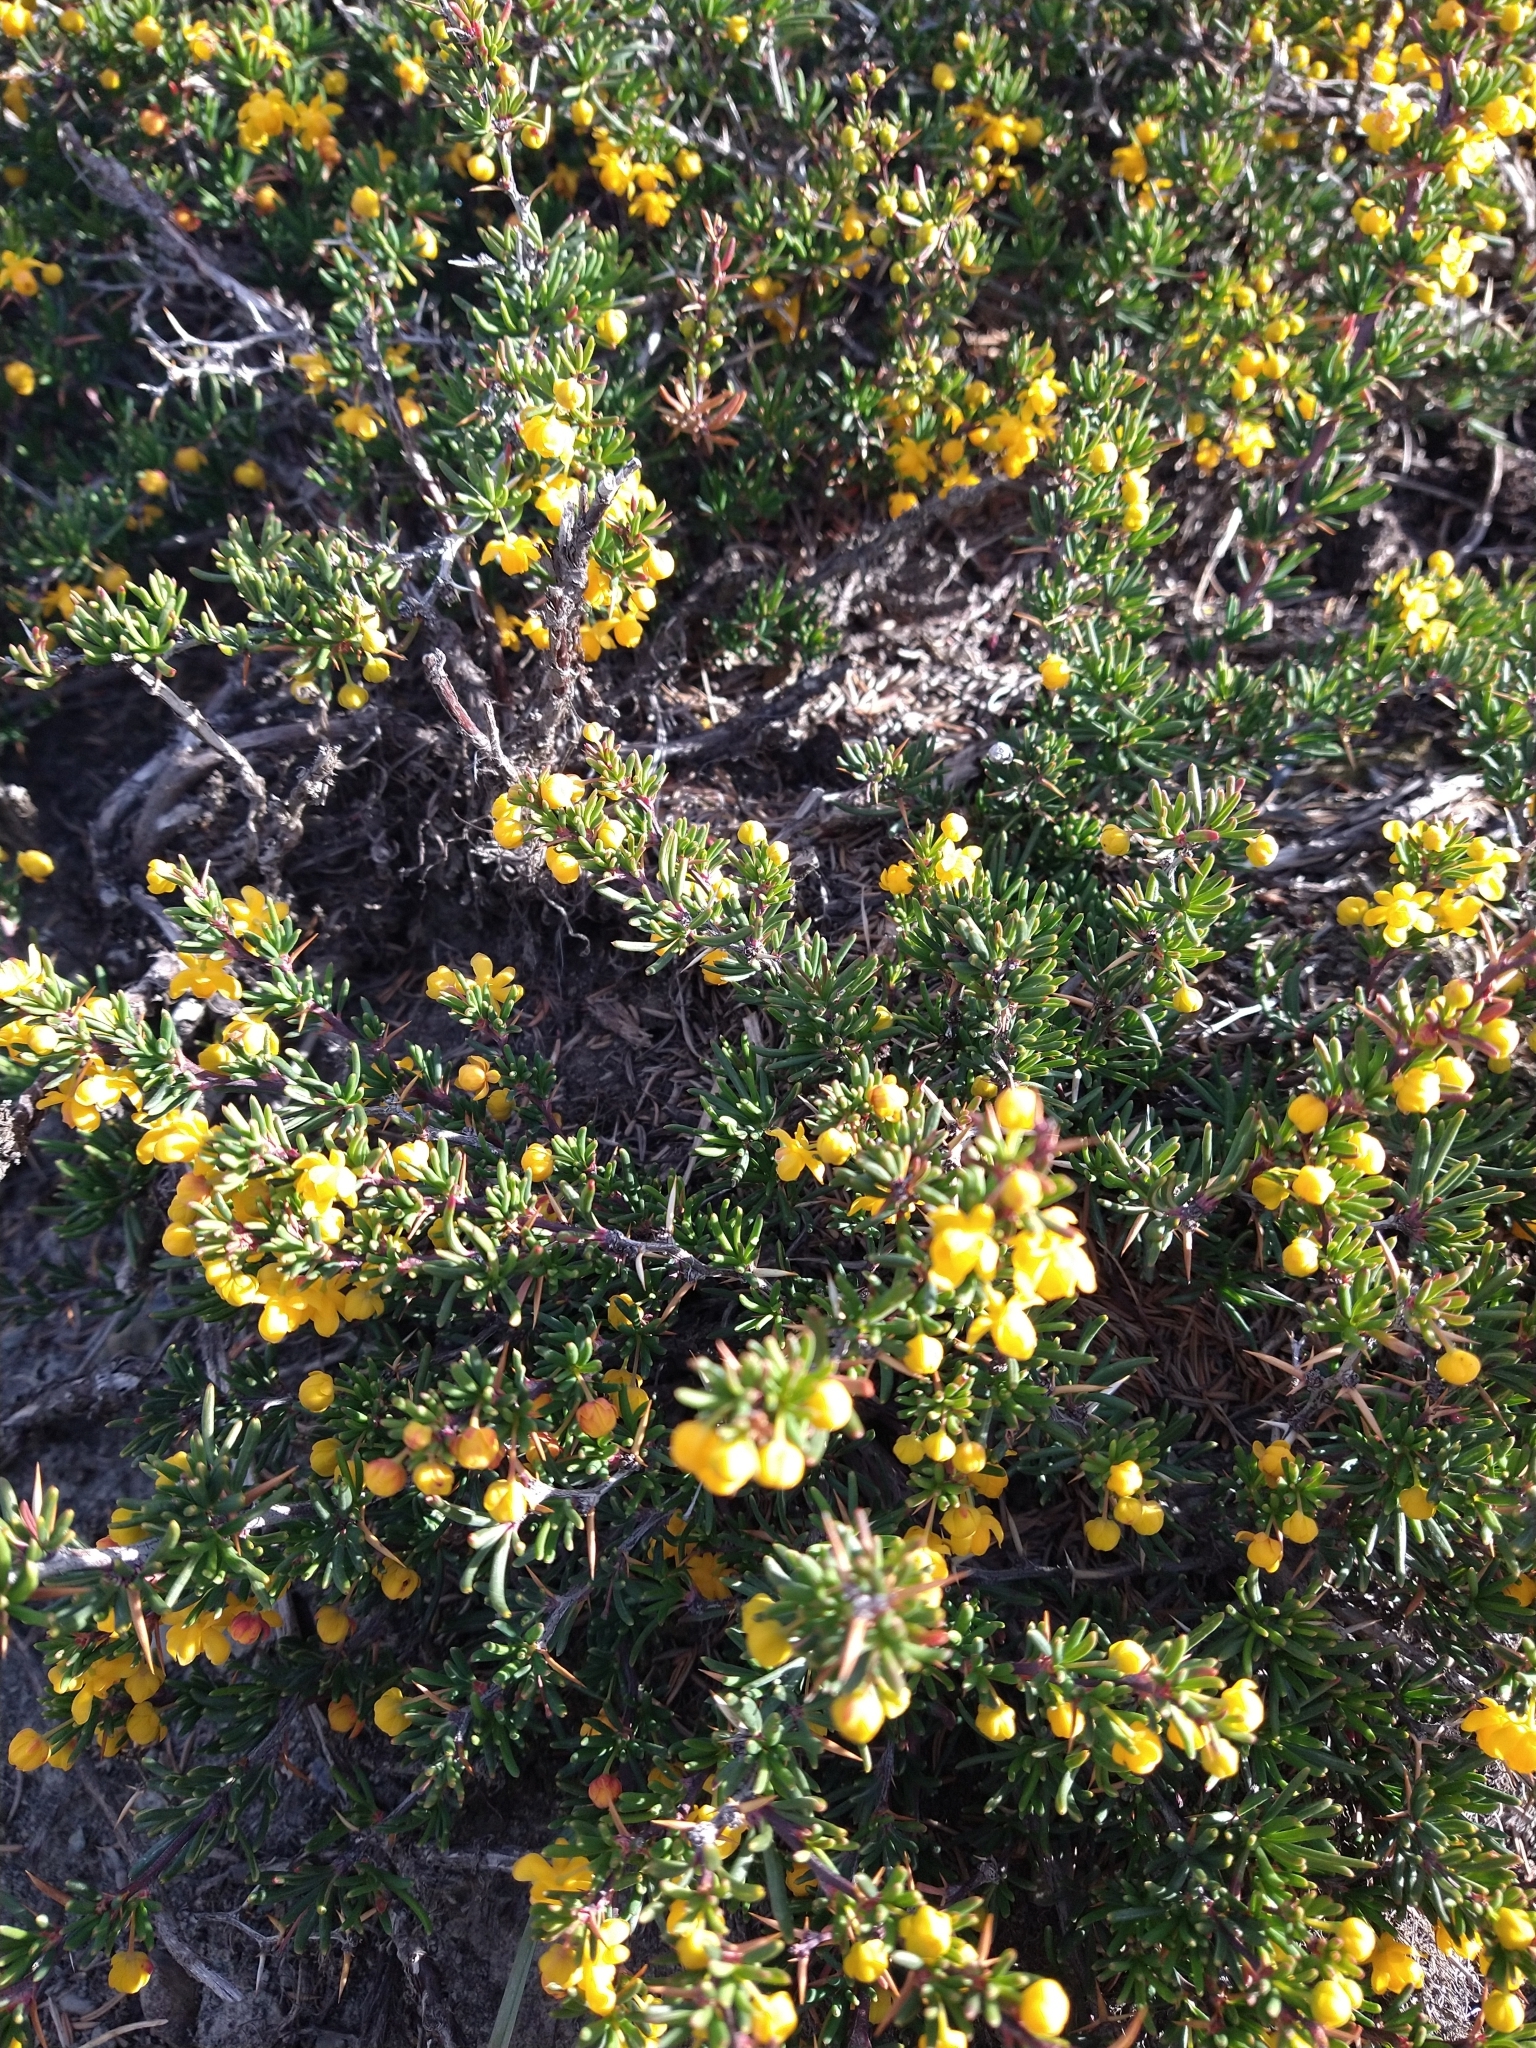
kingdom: Plantae
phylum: Tracheophyta
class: Magnoliopsida
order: Ranunculales
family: Berberidaceae
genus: Berberis
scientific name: Berberis empetrifolia
